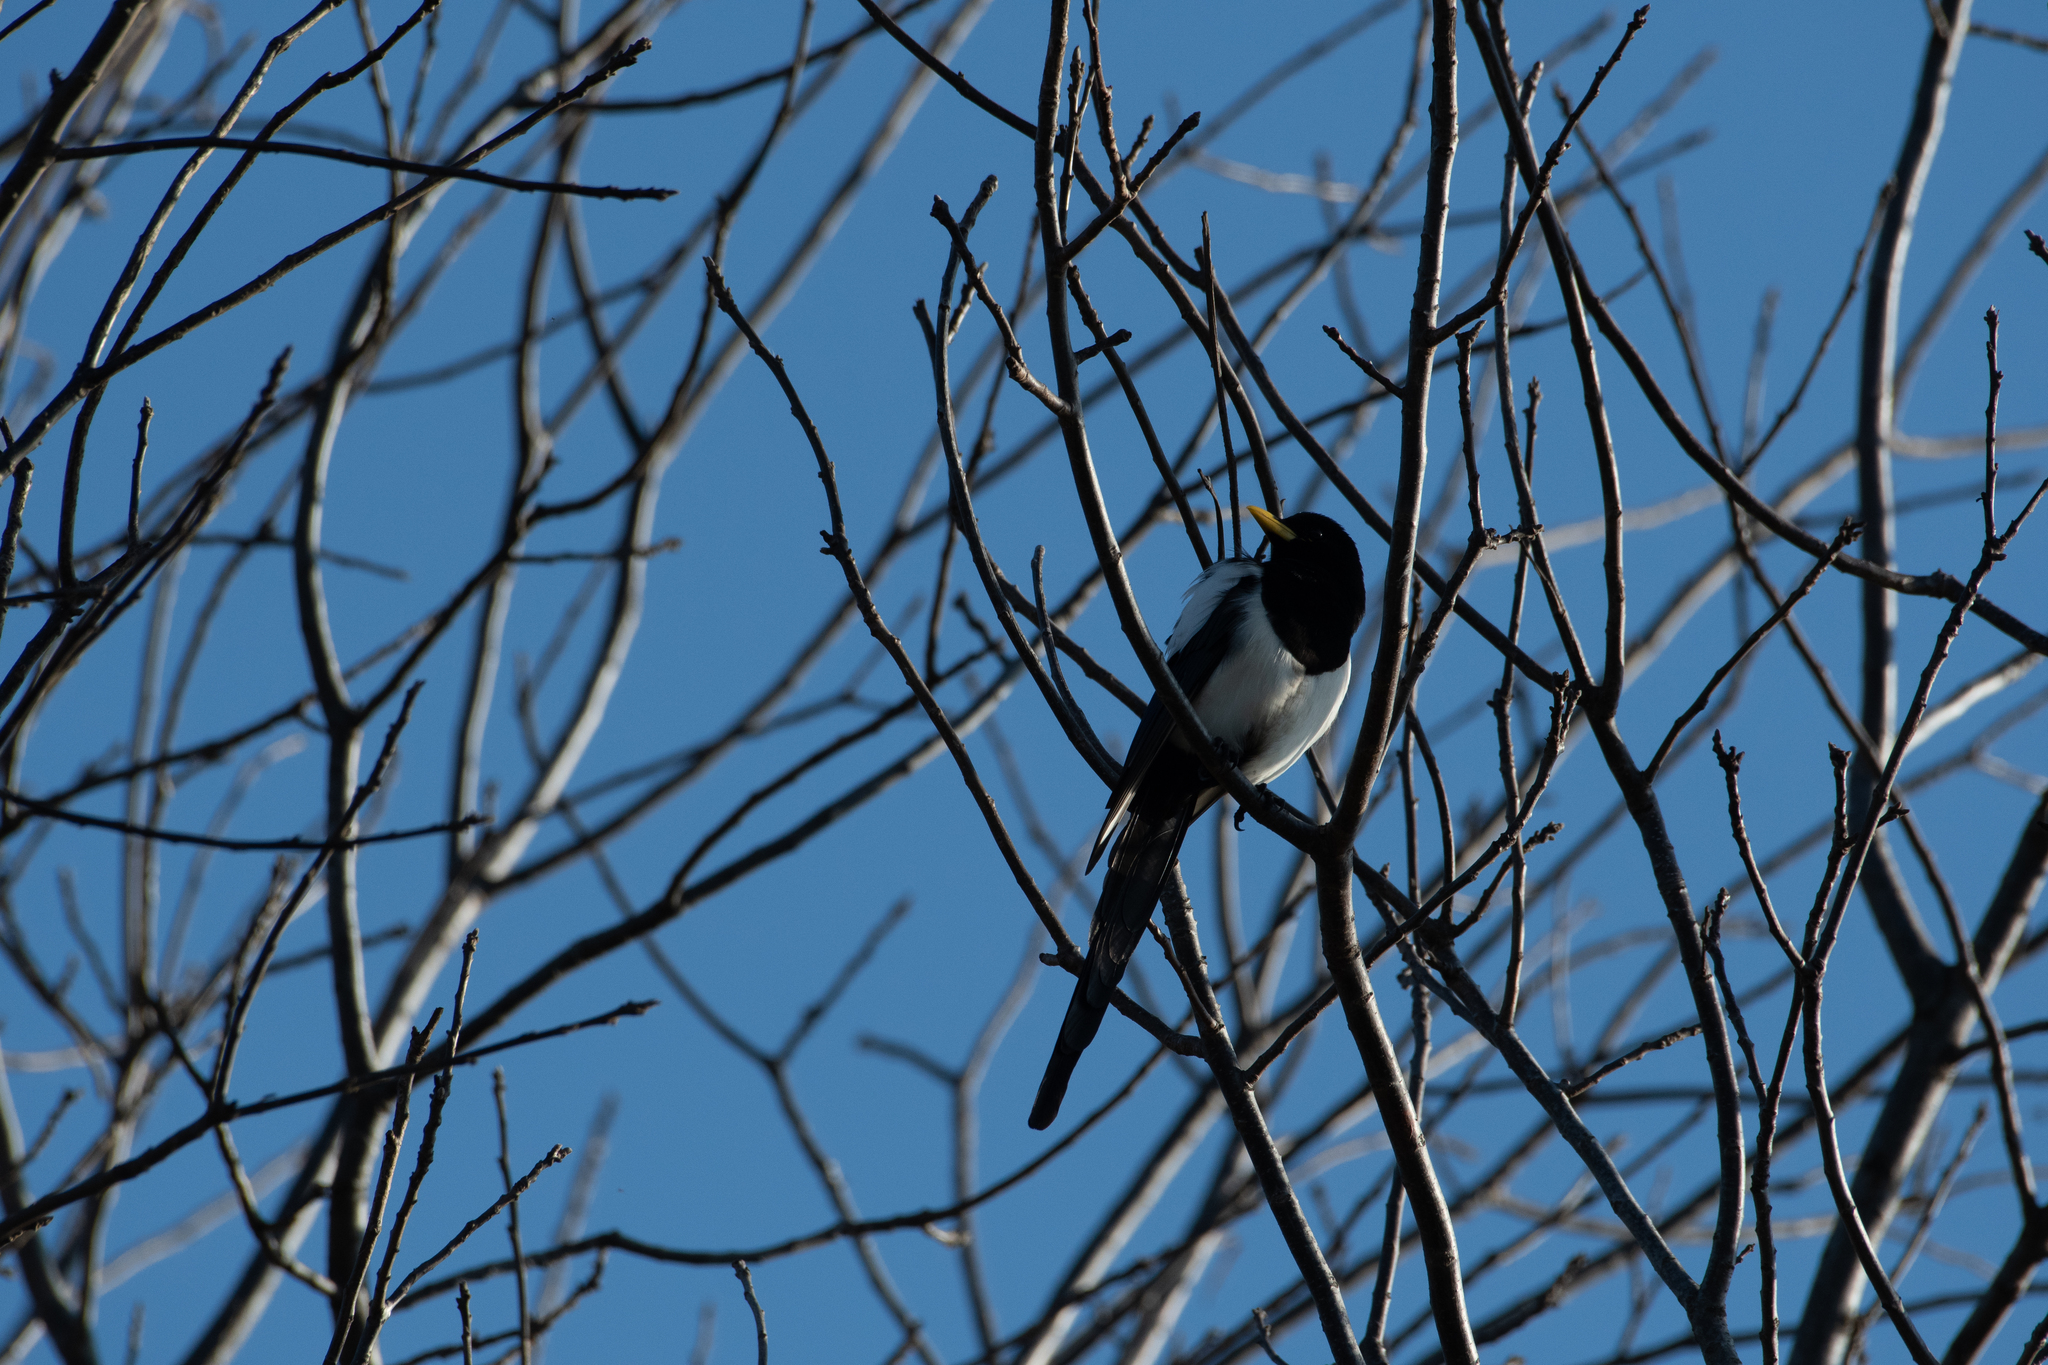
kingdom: Animalia
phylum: Chordata
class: Aves
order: Passeriformes
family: Corvidae
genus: Pica
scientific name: Pica nuttalli
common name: Yellow-billed magpie
